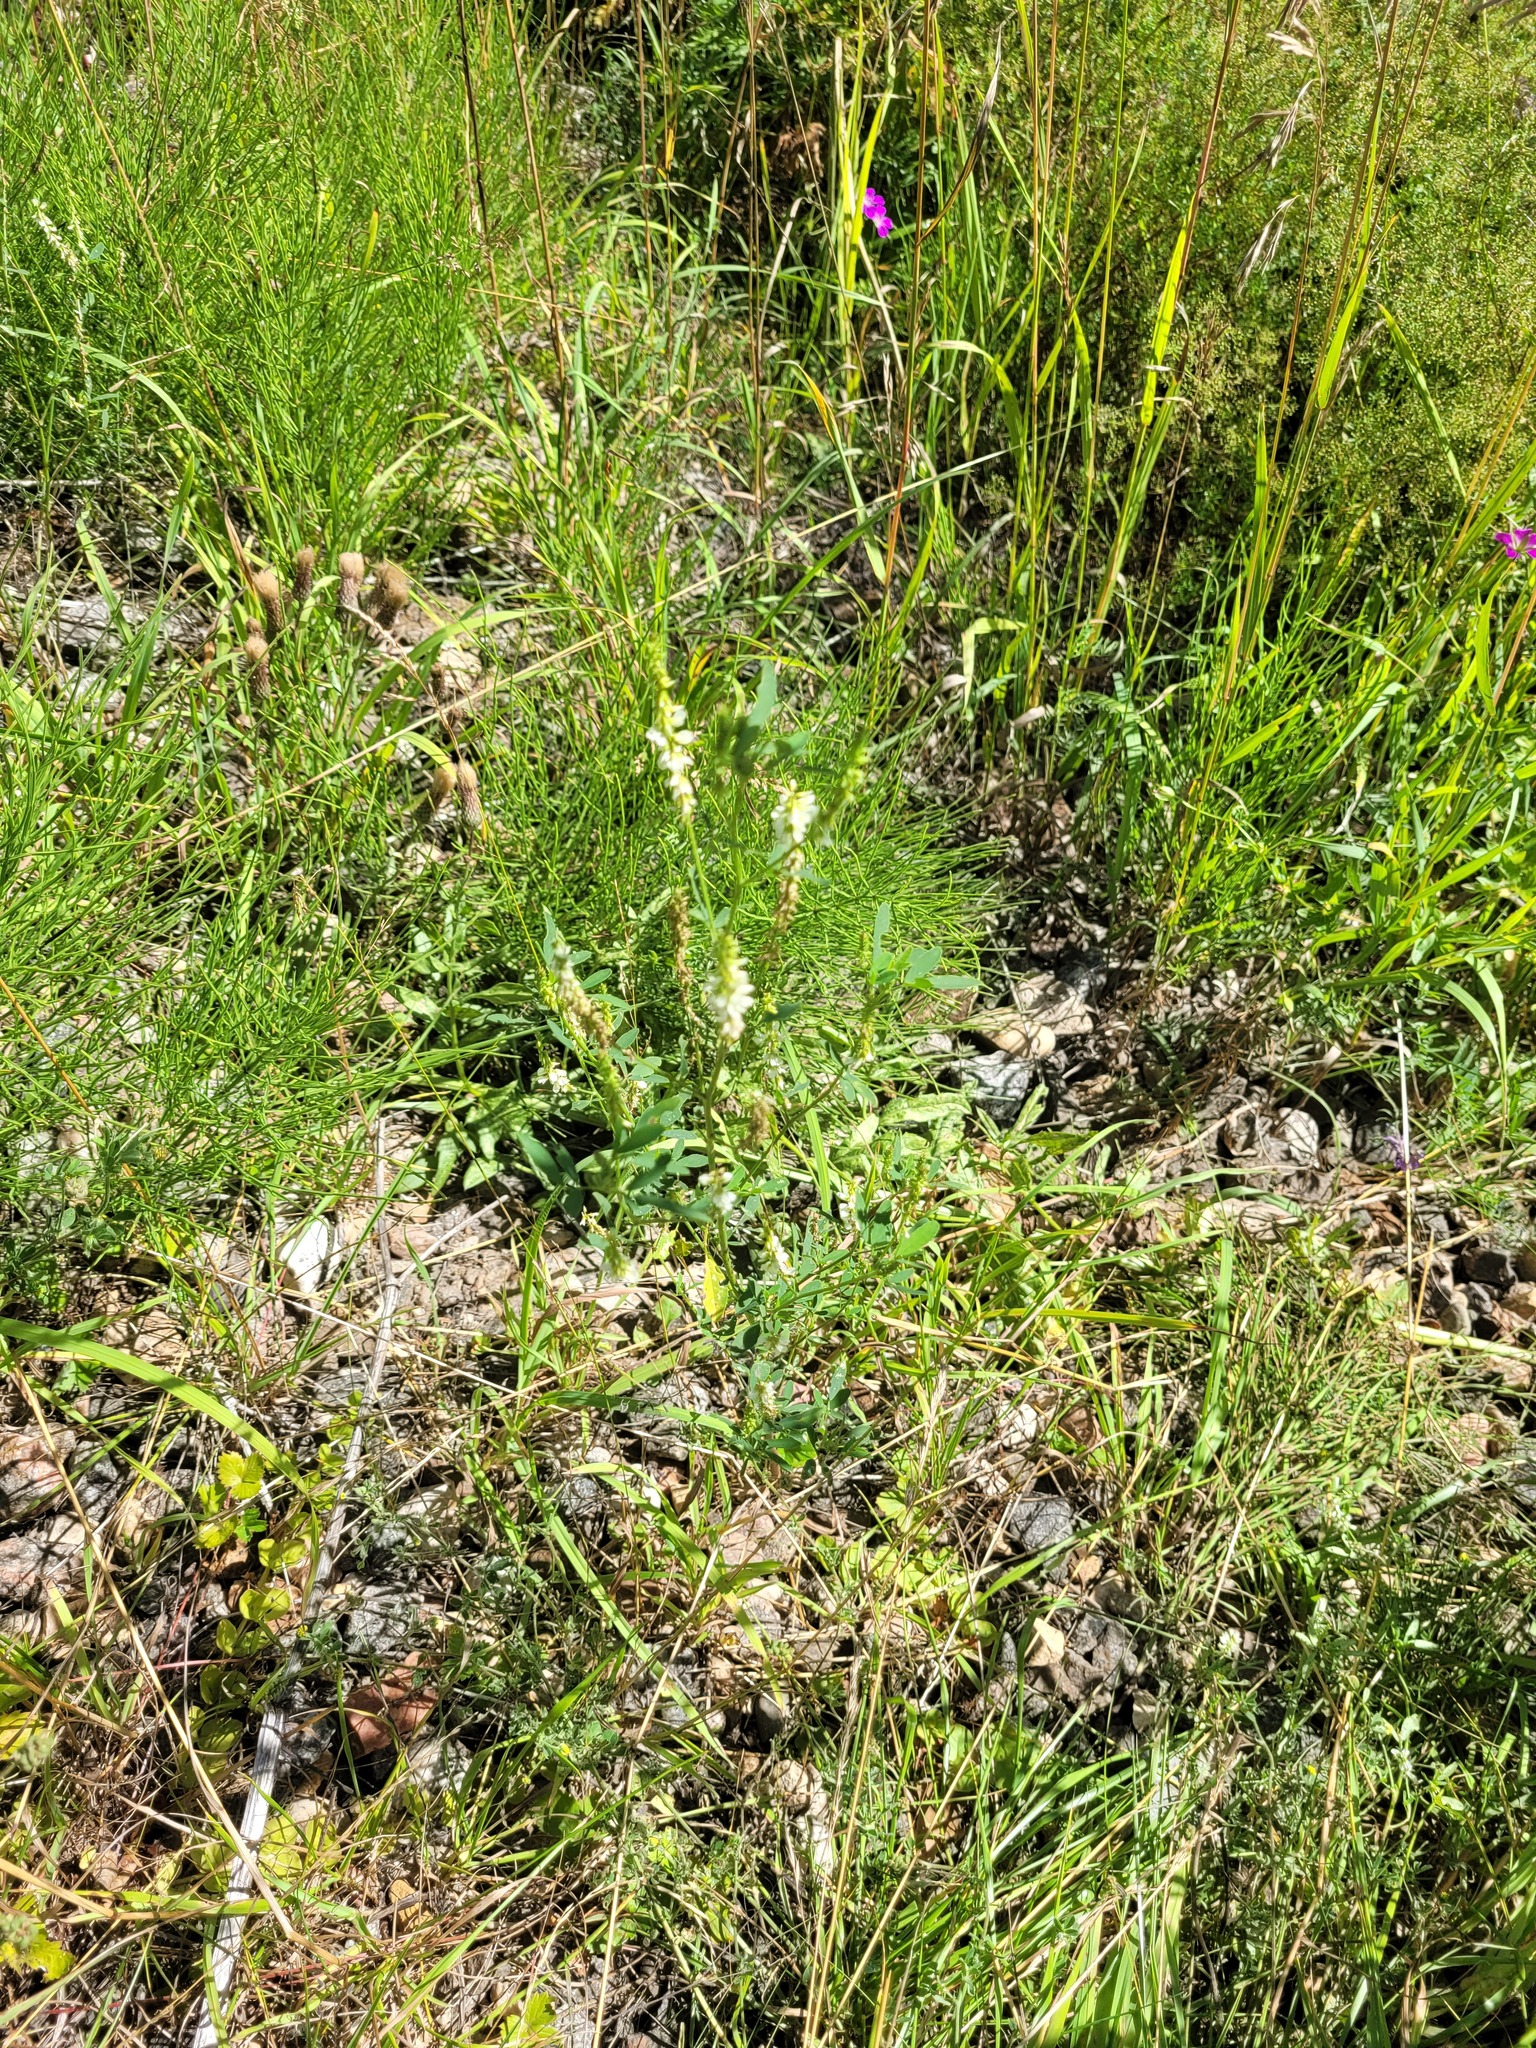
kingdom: Plantae
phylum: Tracheophyta
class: Magnoliopsida
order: Fabales
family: Fabaceae
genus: Melilotus
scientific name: Melilotus albus
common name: White melilot
